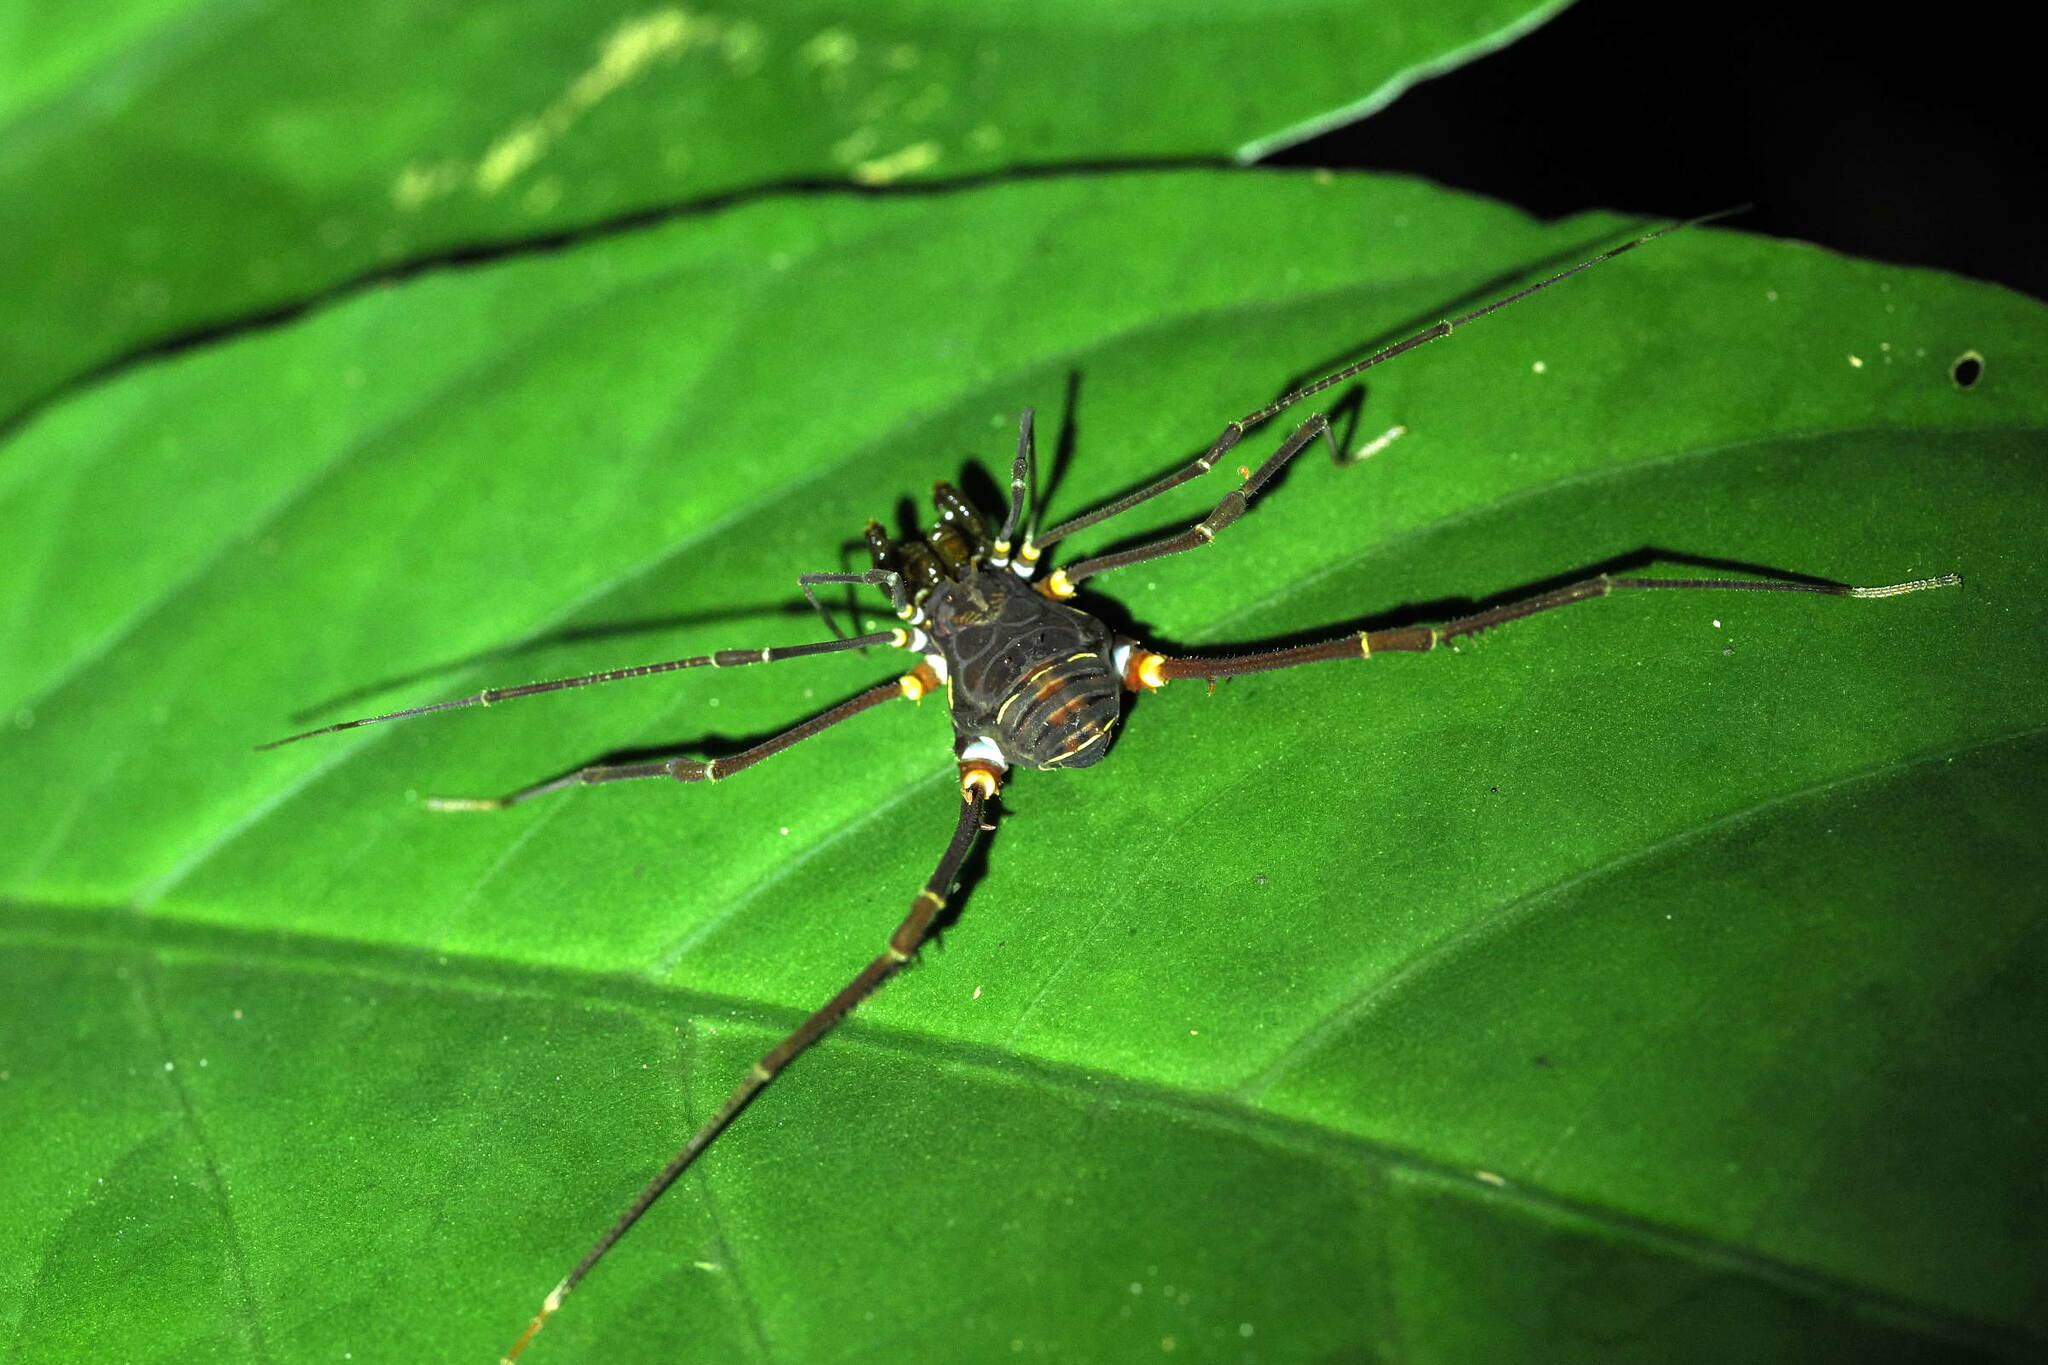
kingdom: Animalia
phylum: Arthropoda
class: Arachnida
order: Opiliones
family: Cranaidae
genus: Phareicranaus
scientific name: Phareicranaus calcariferus
